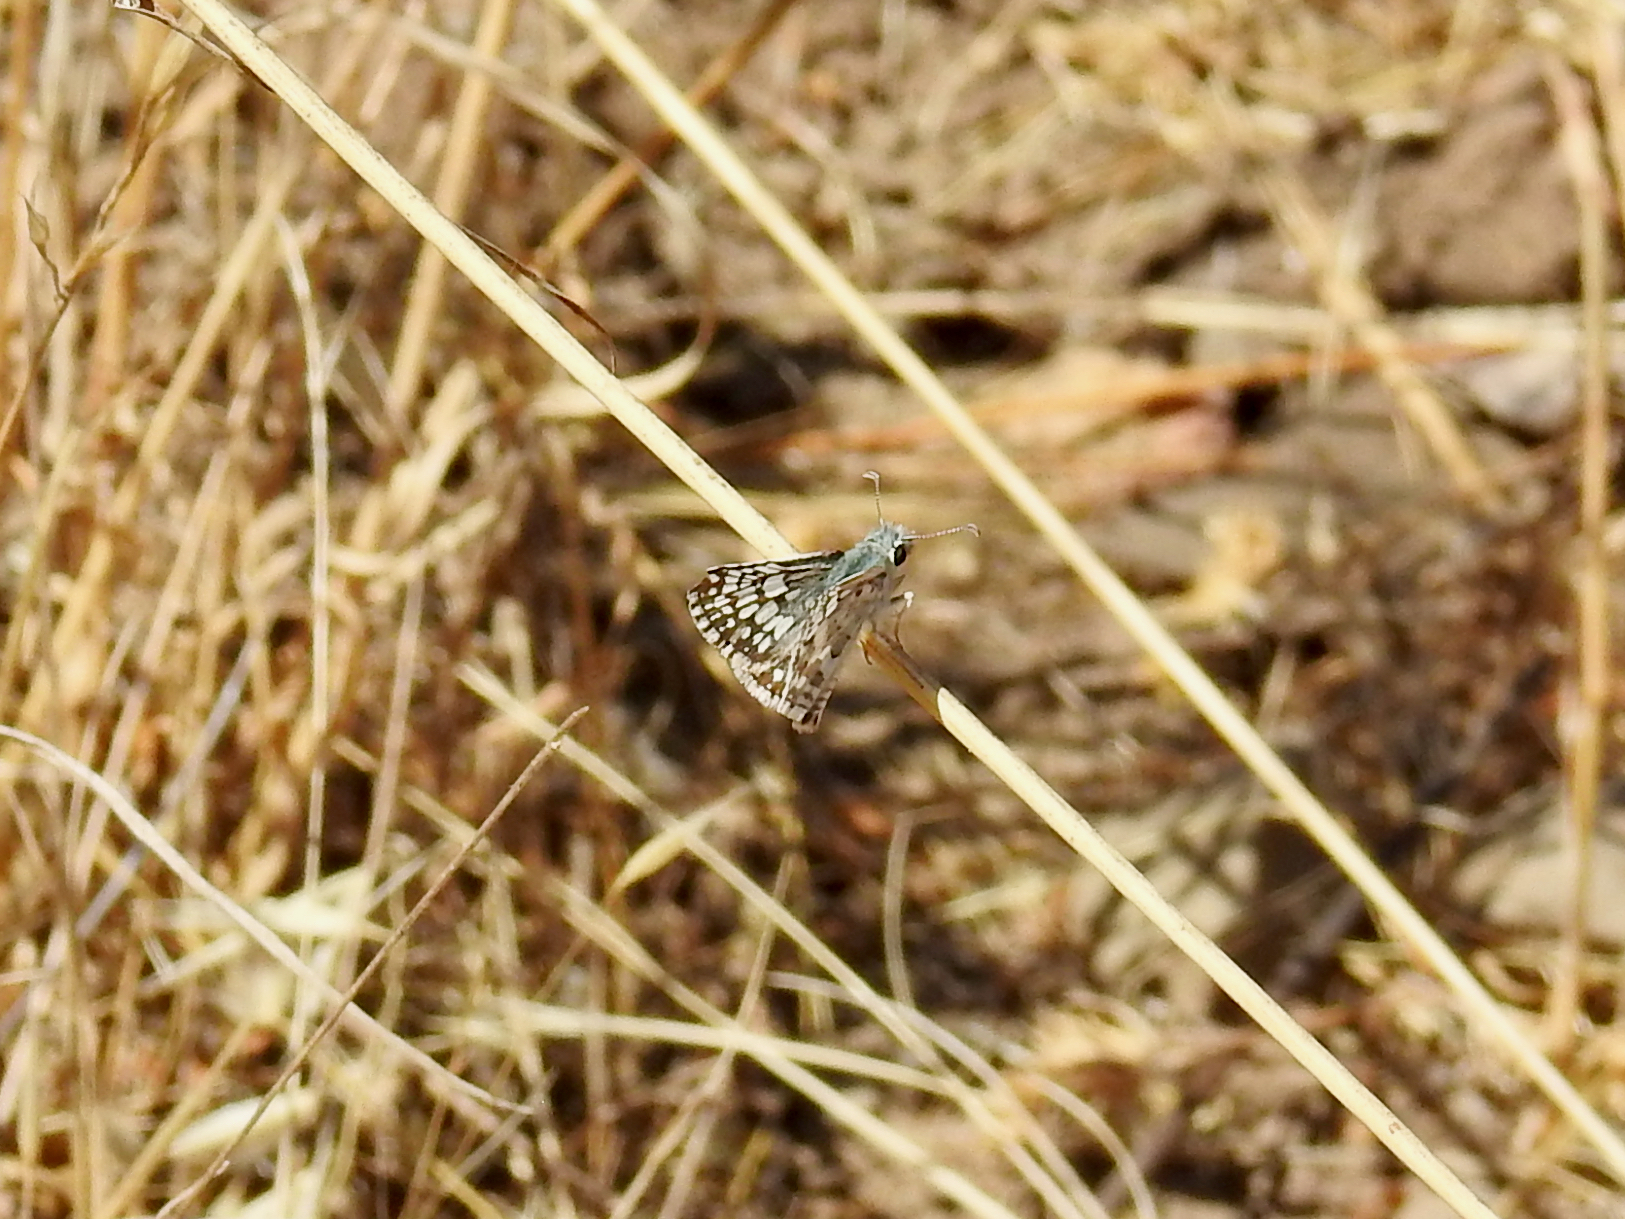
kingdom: Animalia
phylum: Arthropoda
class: Insecta
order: Lepidoptera
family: Hesperiidae
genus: Burnsius
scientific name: Burnsius albezens
